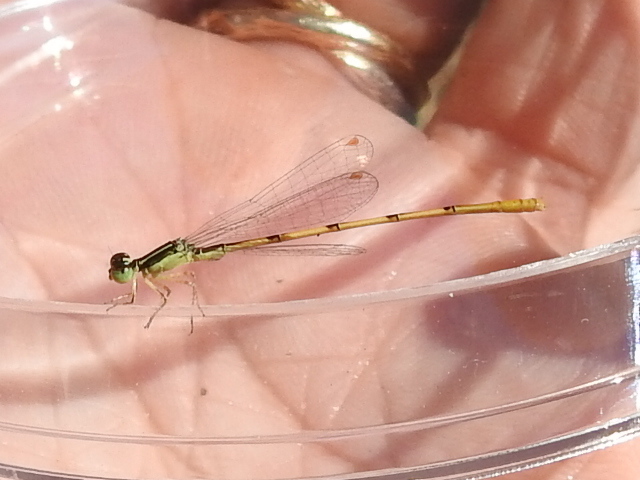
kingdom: Animalia
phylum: Arthropoda
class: Insecta
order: Odonata
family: Coenagrionidae
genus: Ischnura
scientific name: Ischnura hastata
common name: Citrine forktail
